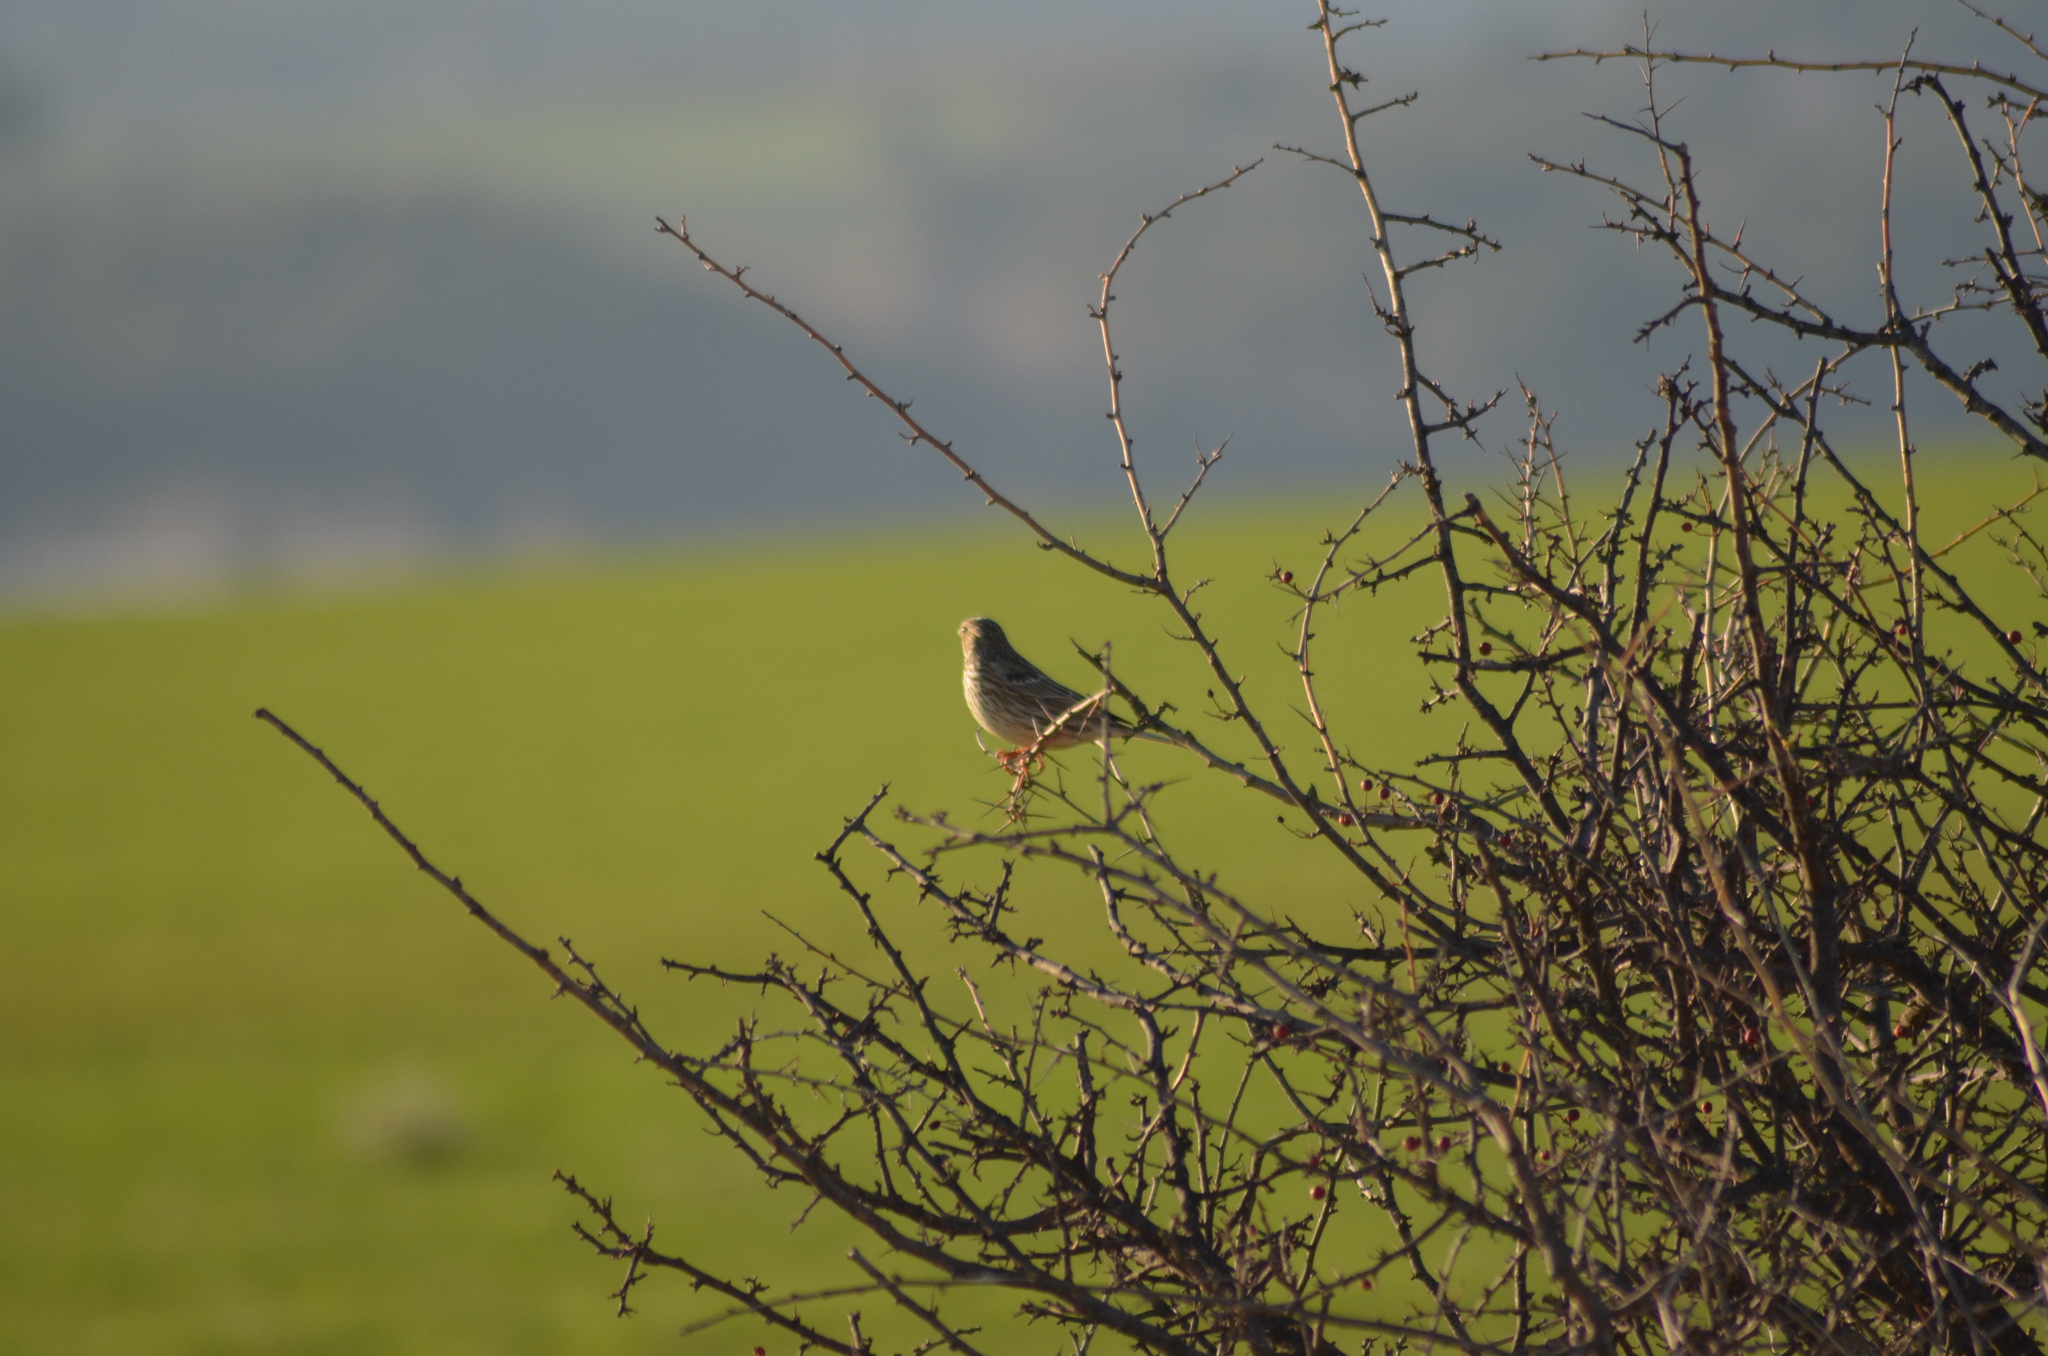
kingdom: Animalia
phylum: Chordata
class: Aves
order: Passeriformes
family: Emberizidae
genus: Emberiza
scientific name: Emberiza calandra
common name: Corn bunting
